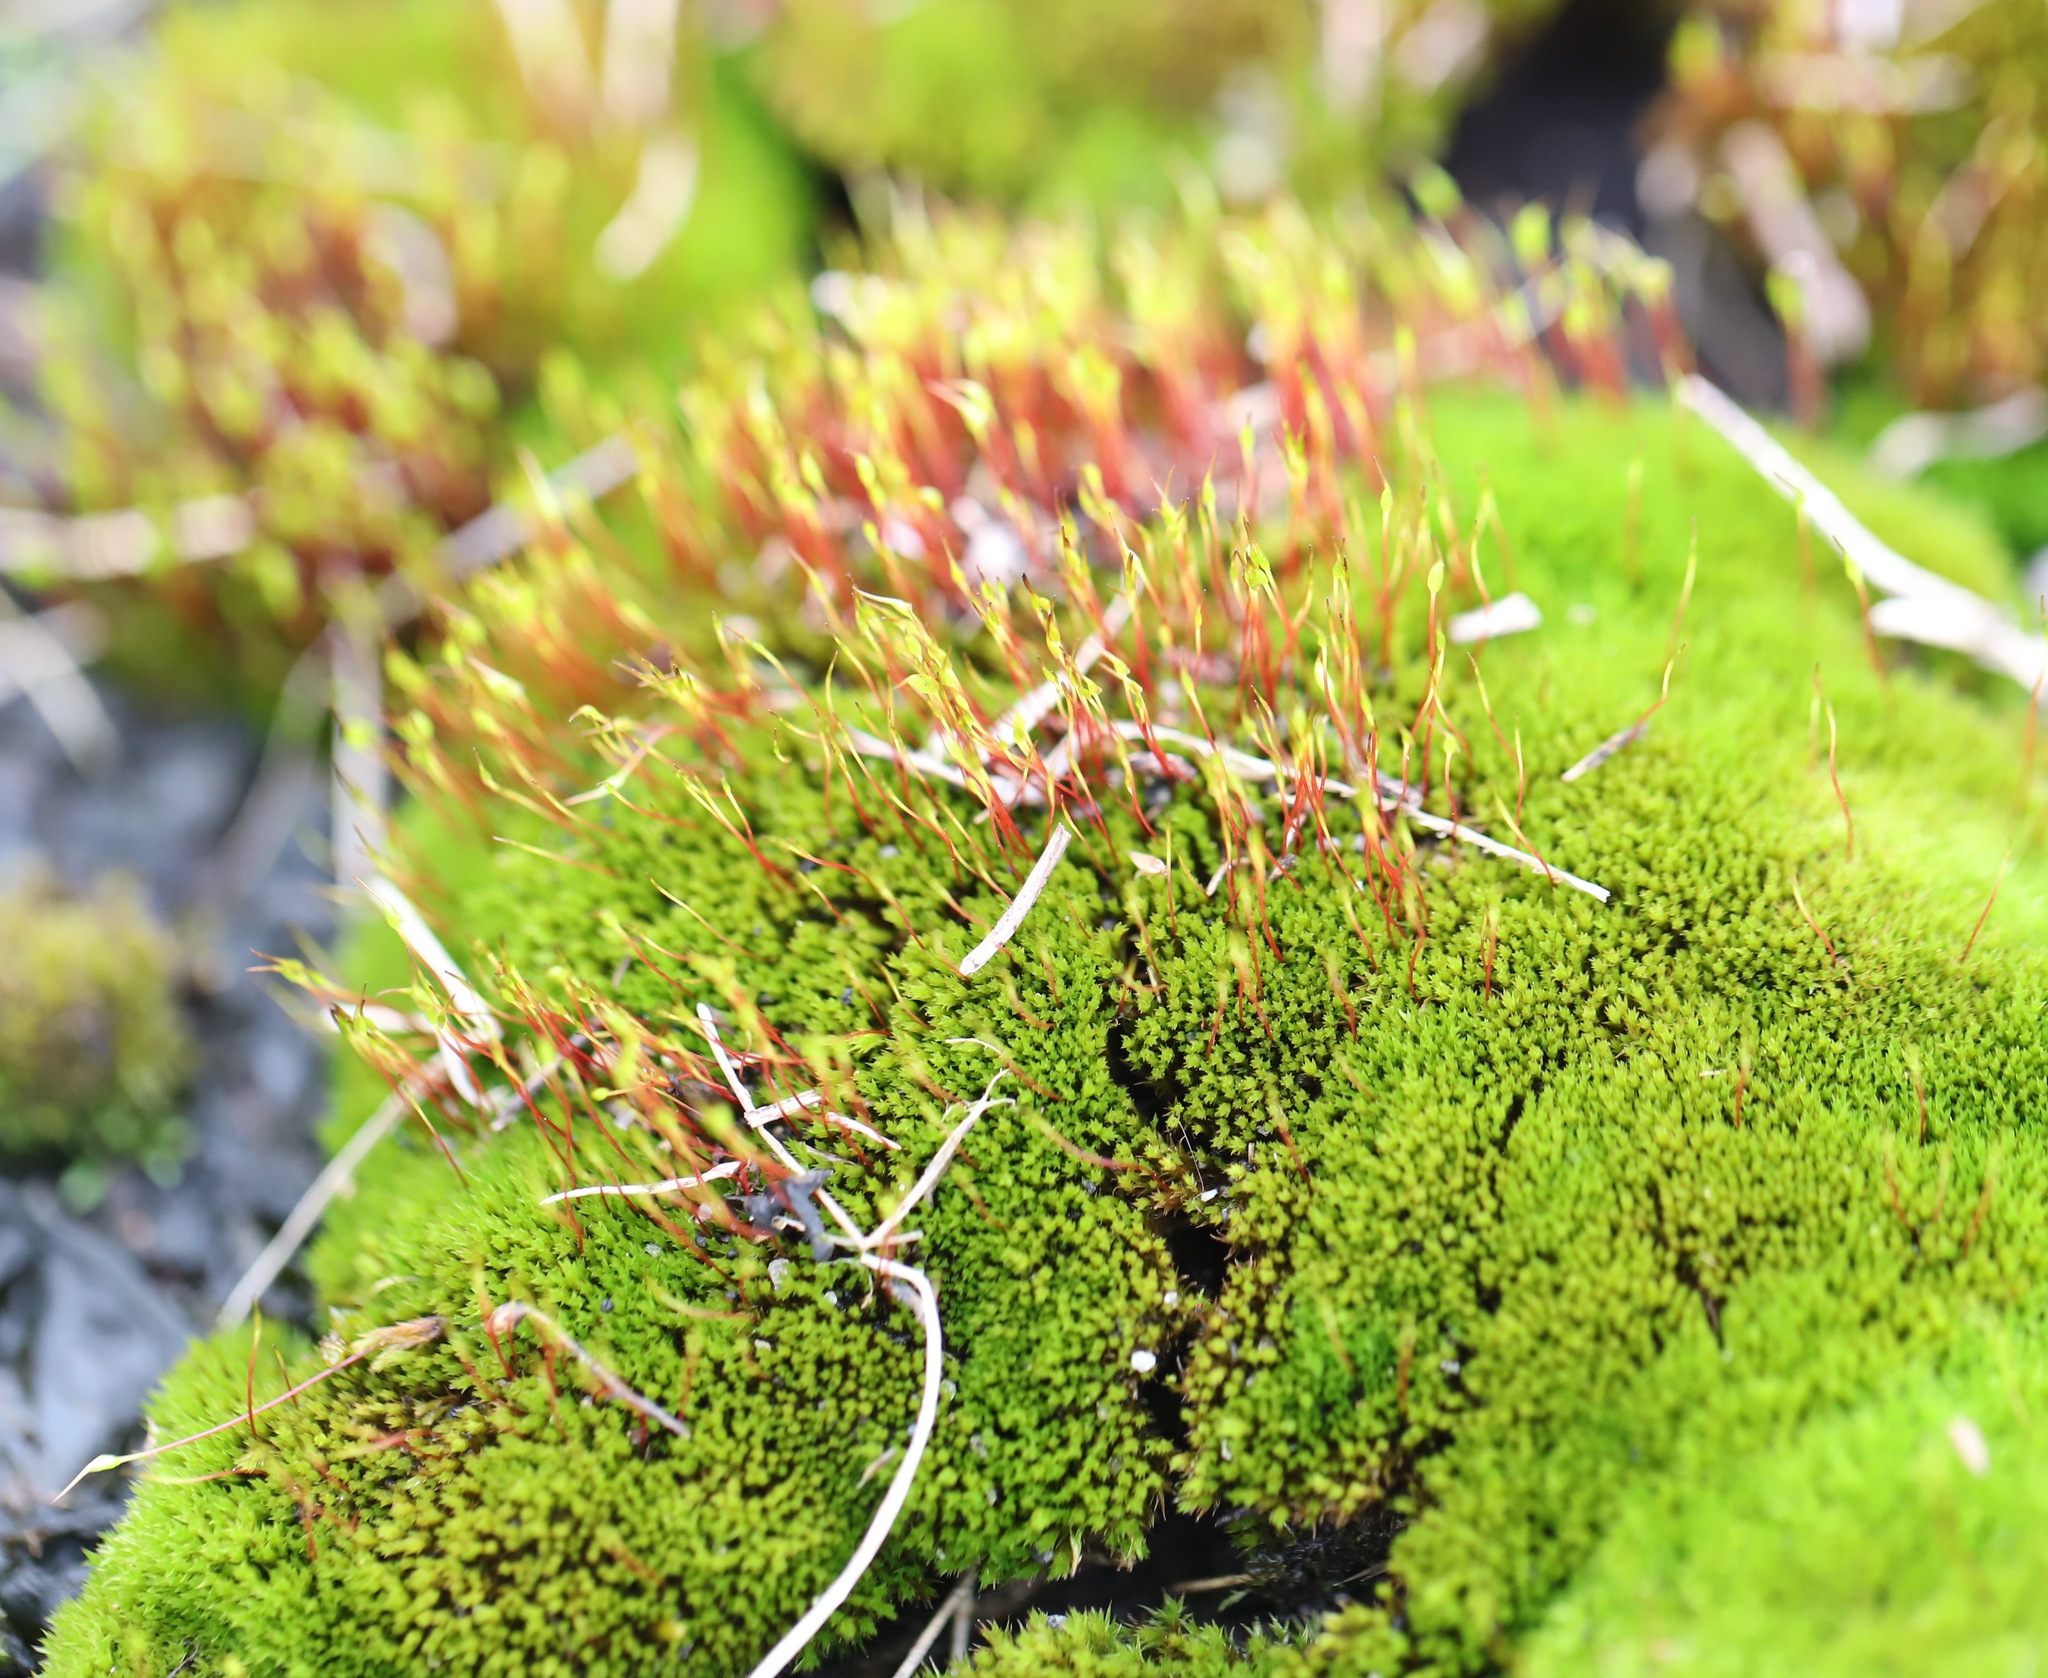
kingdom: Plantae
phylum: Bryophyta
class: Bryopsida
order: Dicranales
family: Ditrichaceae
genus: Ceratodon
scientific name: Ceratodon purpureus
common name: Redshank
